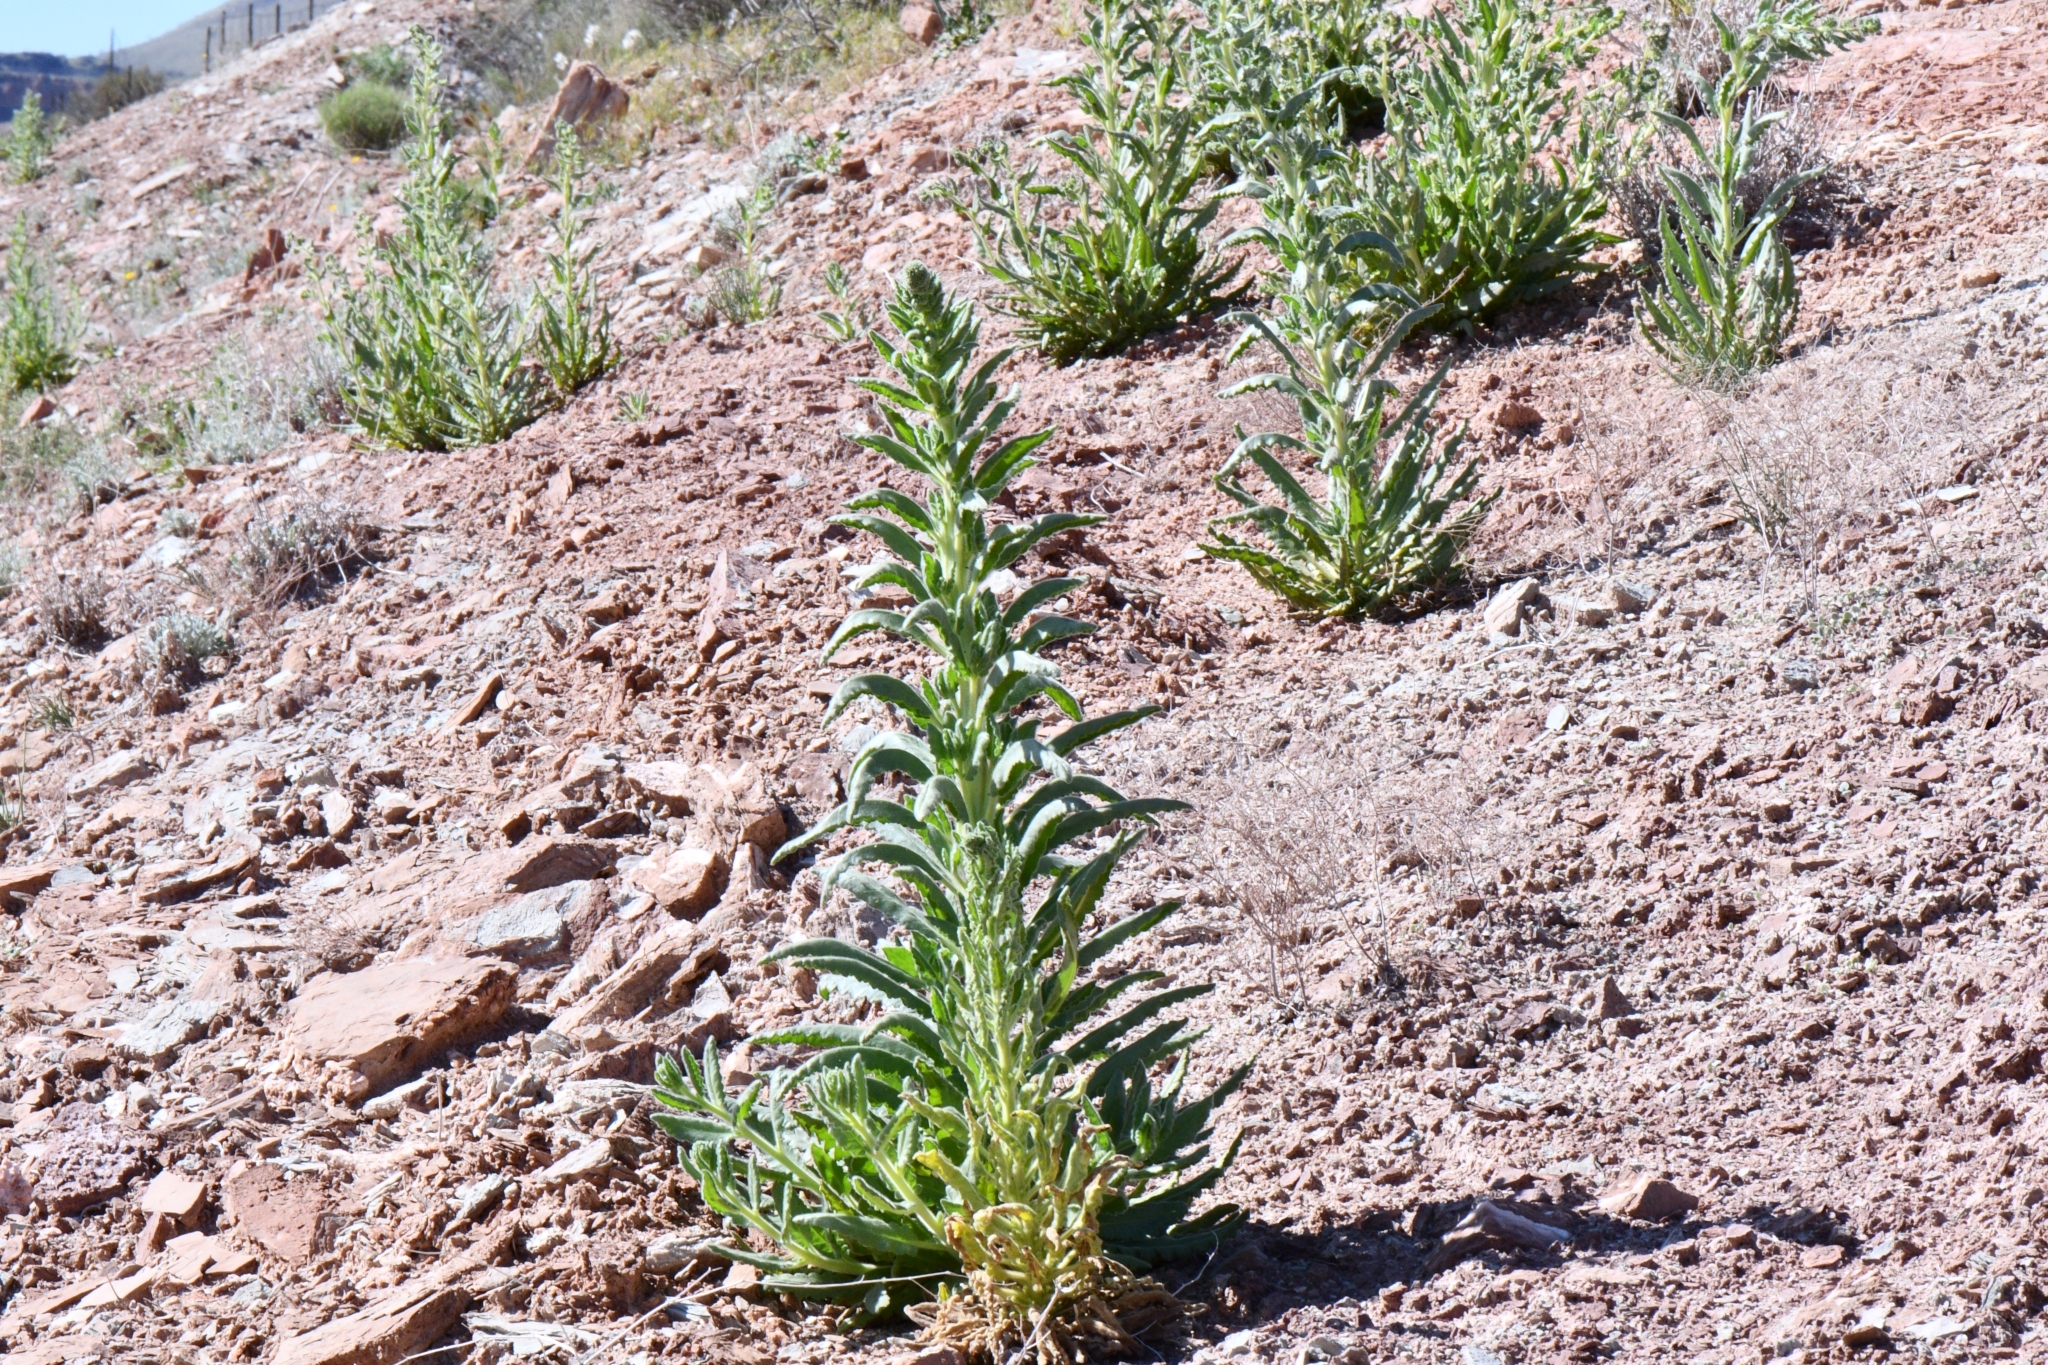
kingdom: Plantae
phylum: Tracheophyta
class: Magnoliopsida
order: Boraginales
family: Hydrophyllaceae
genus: Phacelia
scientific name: Phacelia palmeri
